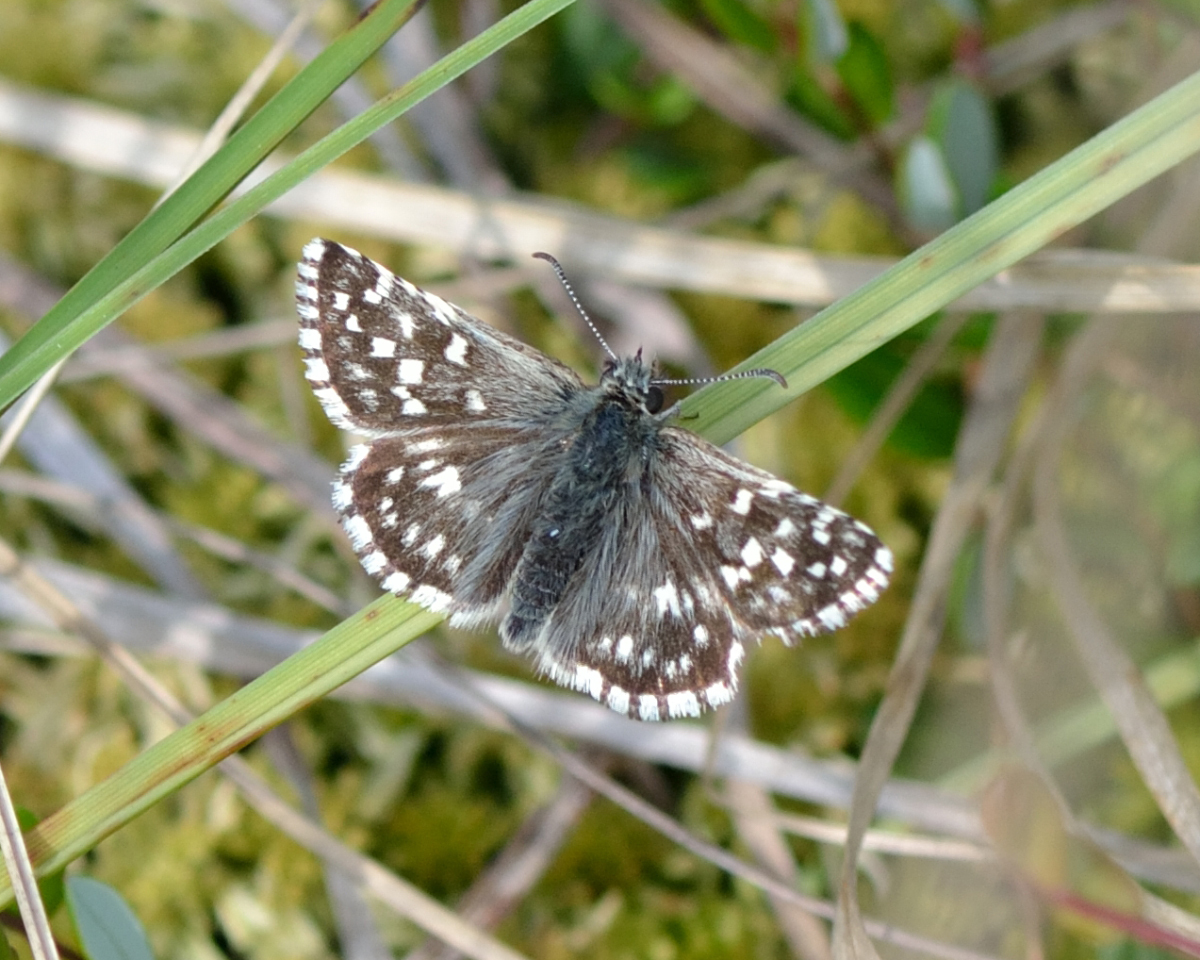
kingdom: Animalia
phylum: Arthropoda
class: Insecta
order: Lepidoptera
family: Hesperiidae
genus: Pyrgus
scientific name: Pyrgus malvae
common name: Grizzled skipper
